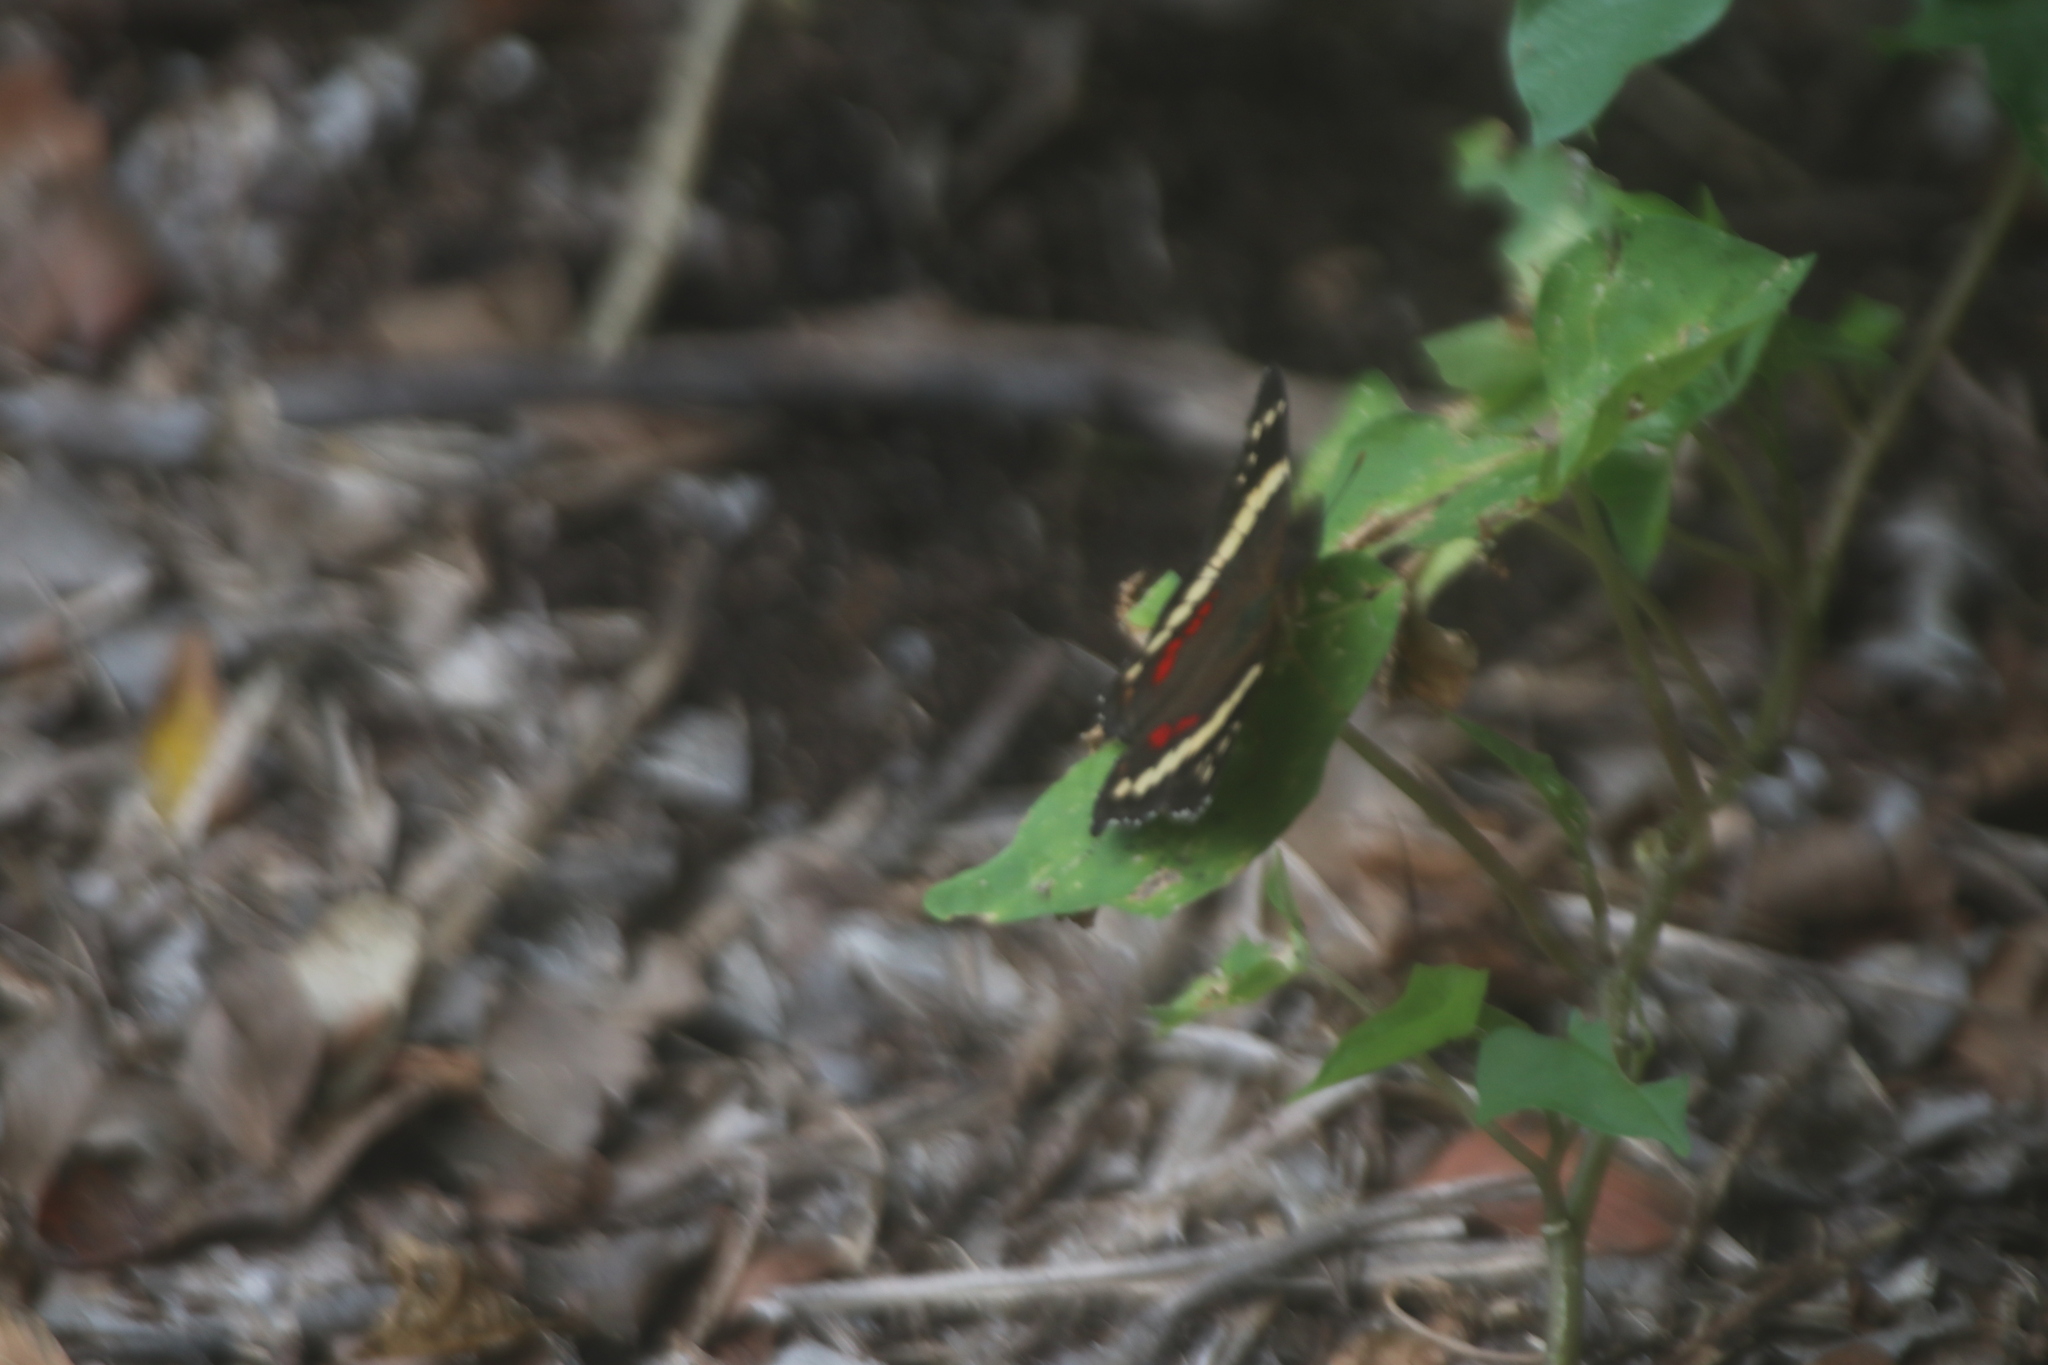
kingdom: Animalia
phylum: Arthropoda
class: Insecta
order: Lepidoptera
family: Nymphalidae
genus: Anartia
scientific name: Anartia fatima
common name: Banded peacock
